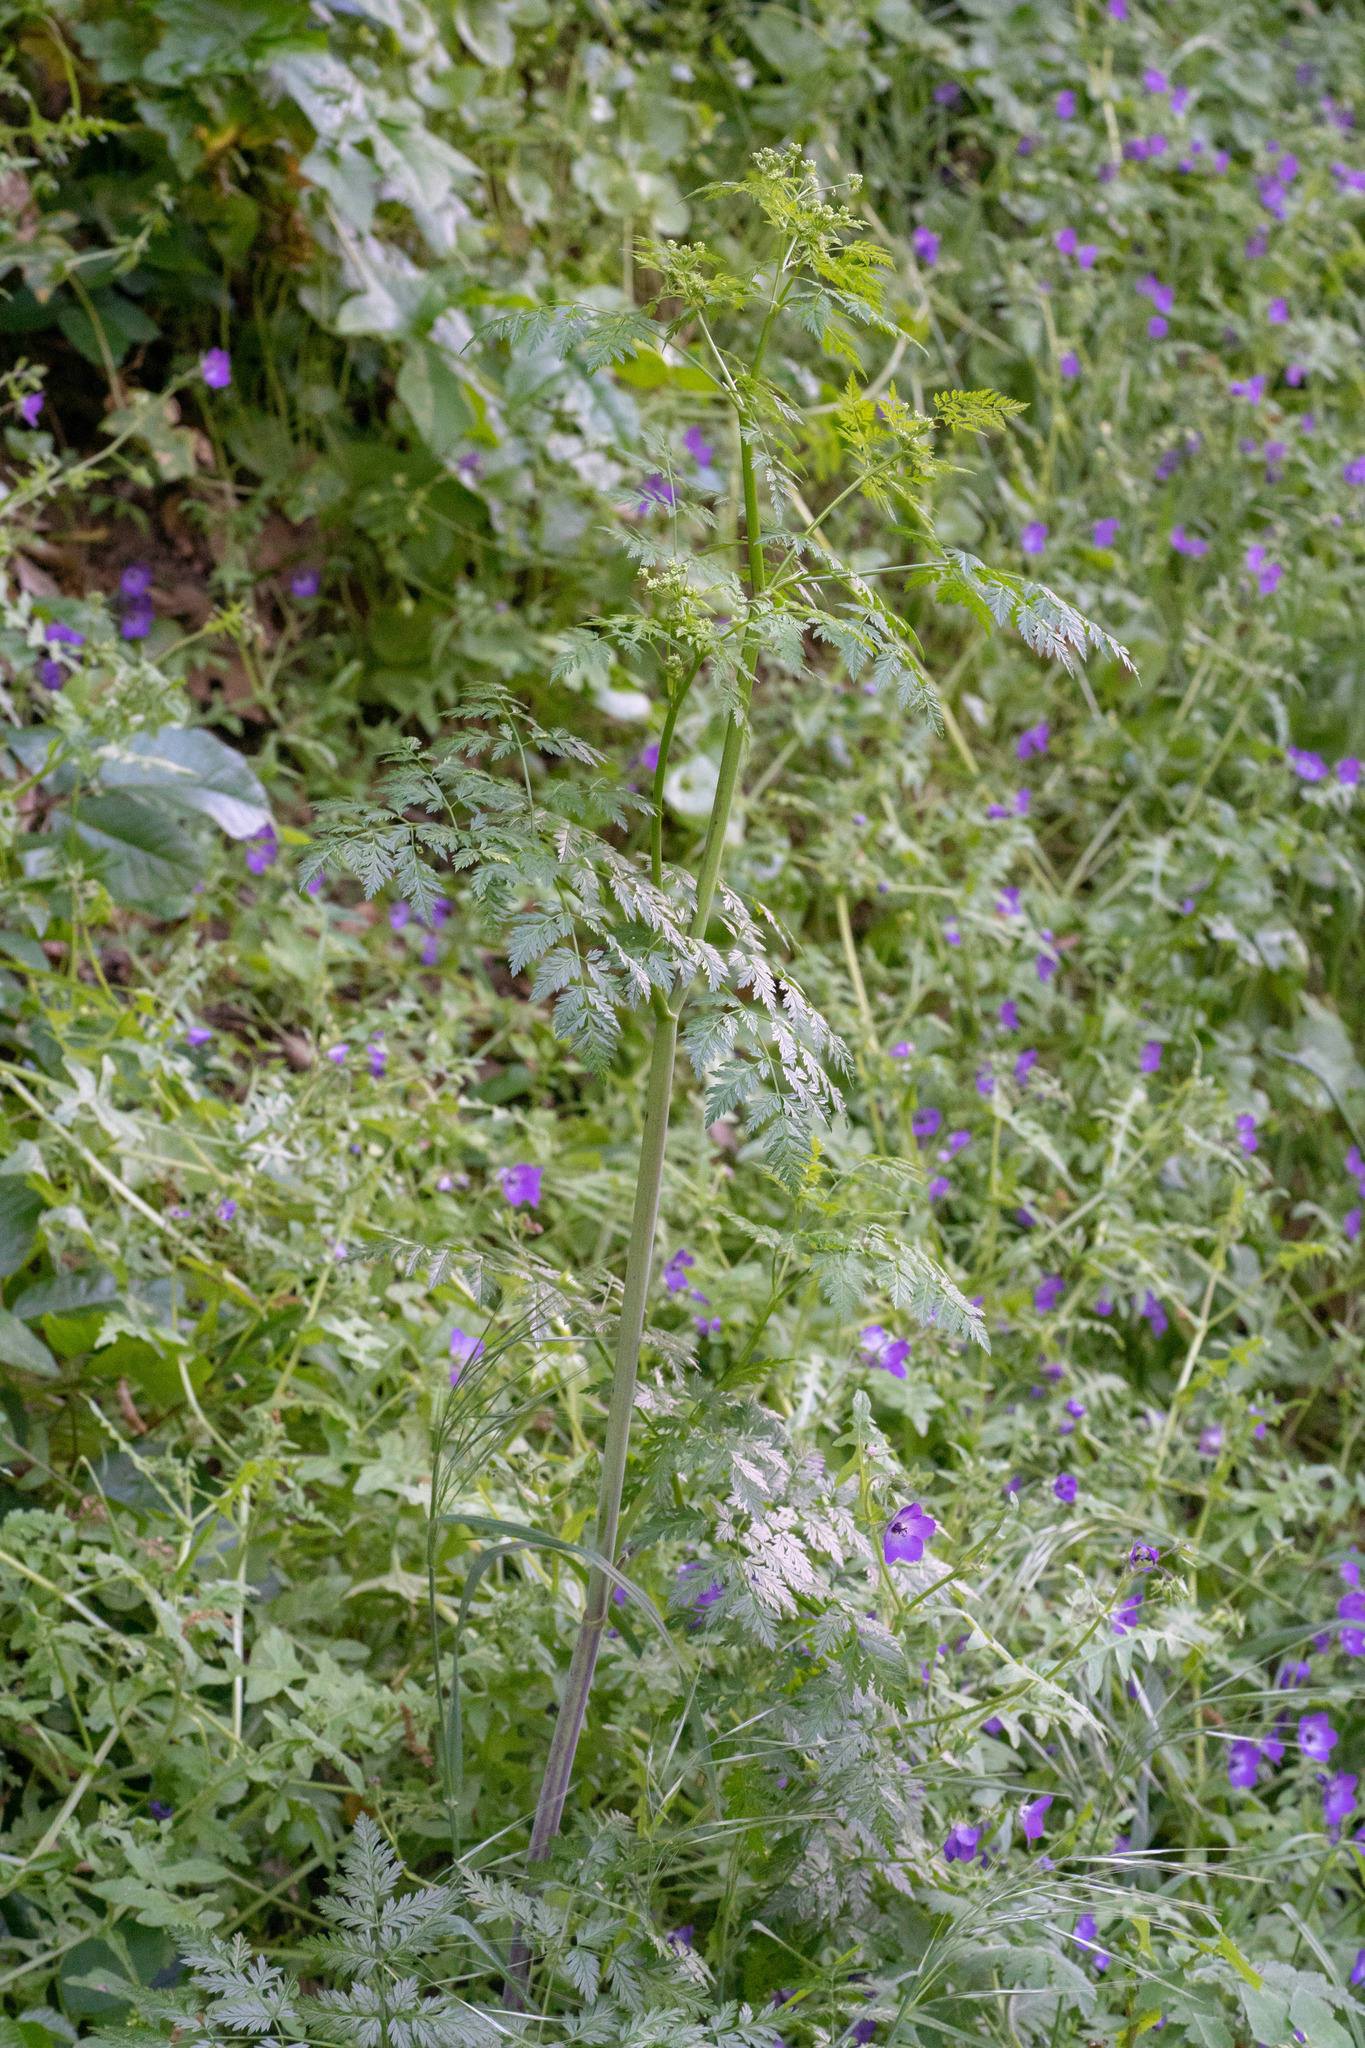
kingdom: Plantae
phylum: Tracheophyta
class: Magnoliopsida
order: Apiales
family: Apiaceae
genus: Conium
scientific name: Conium maculatum
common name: Hemlock
